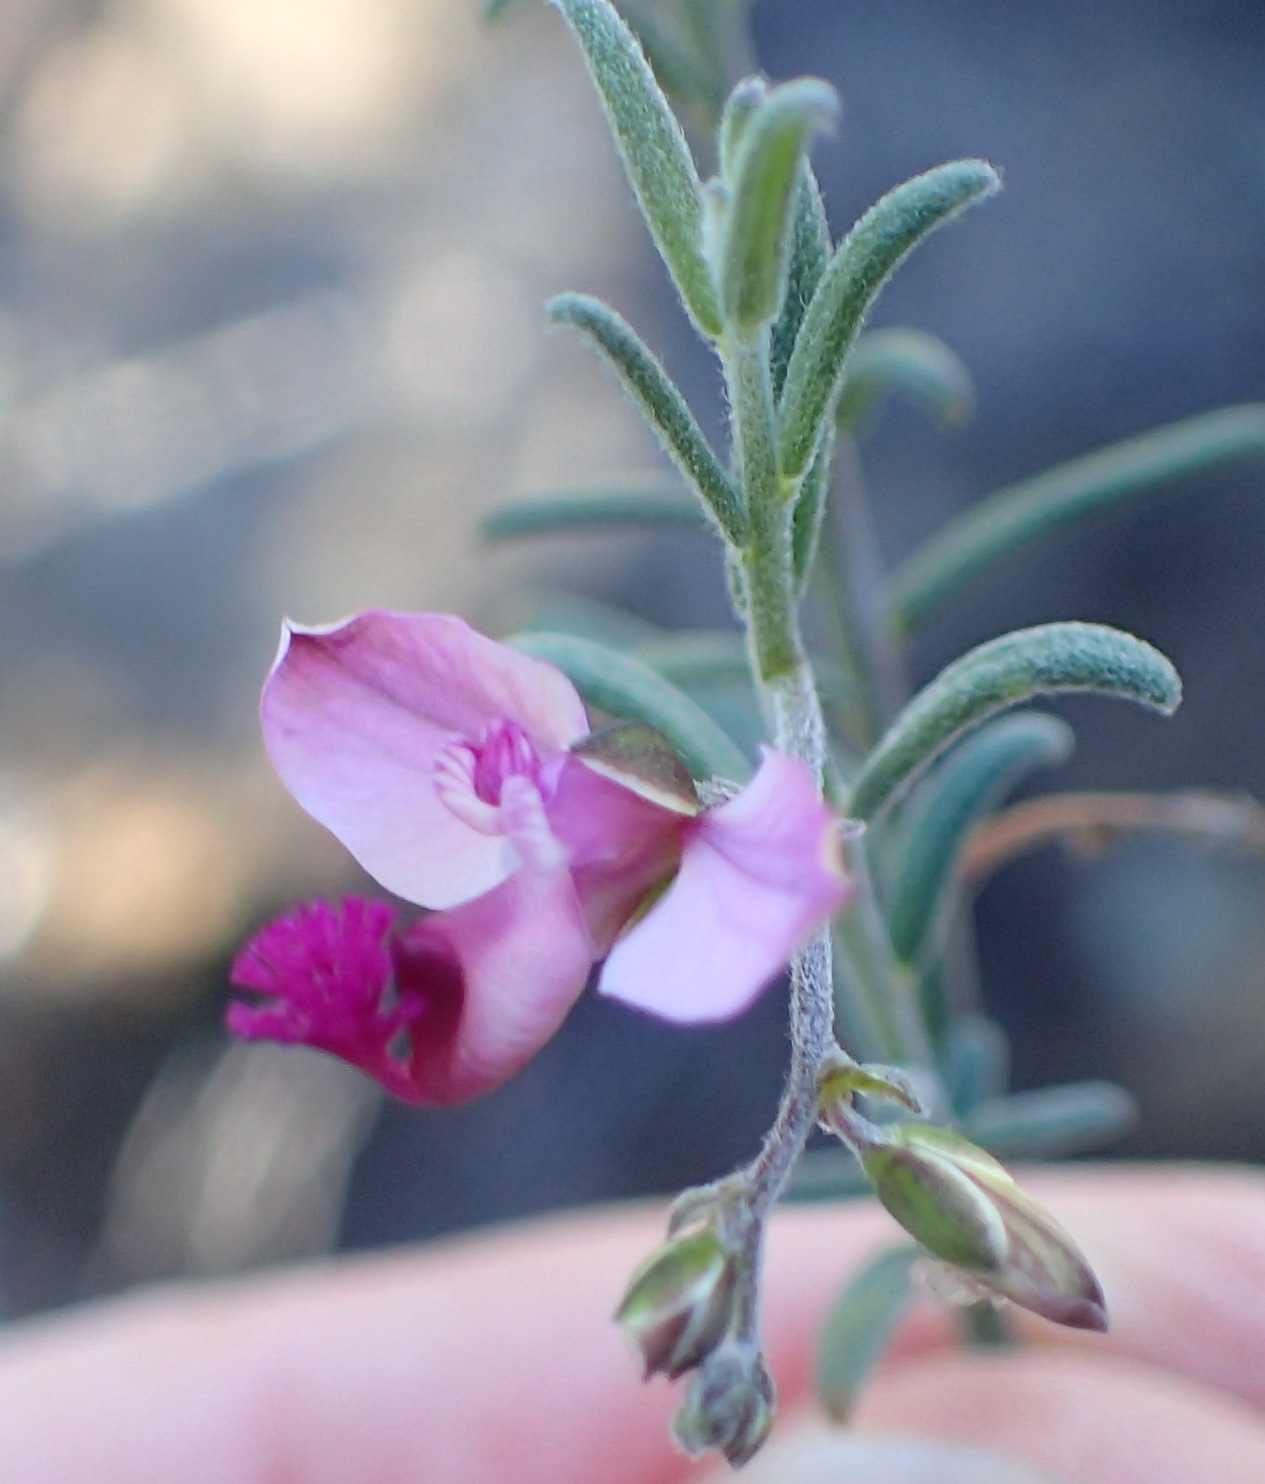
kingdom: Plantae
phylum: Tracheophyta
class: Magnoliopsida
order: Fabales
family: Polygalaceae
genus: Polygala
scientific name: Polygala scabra
